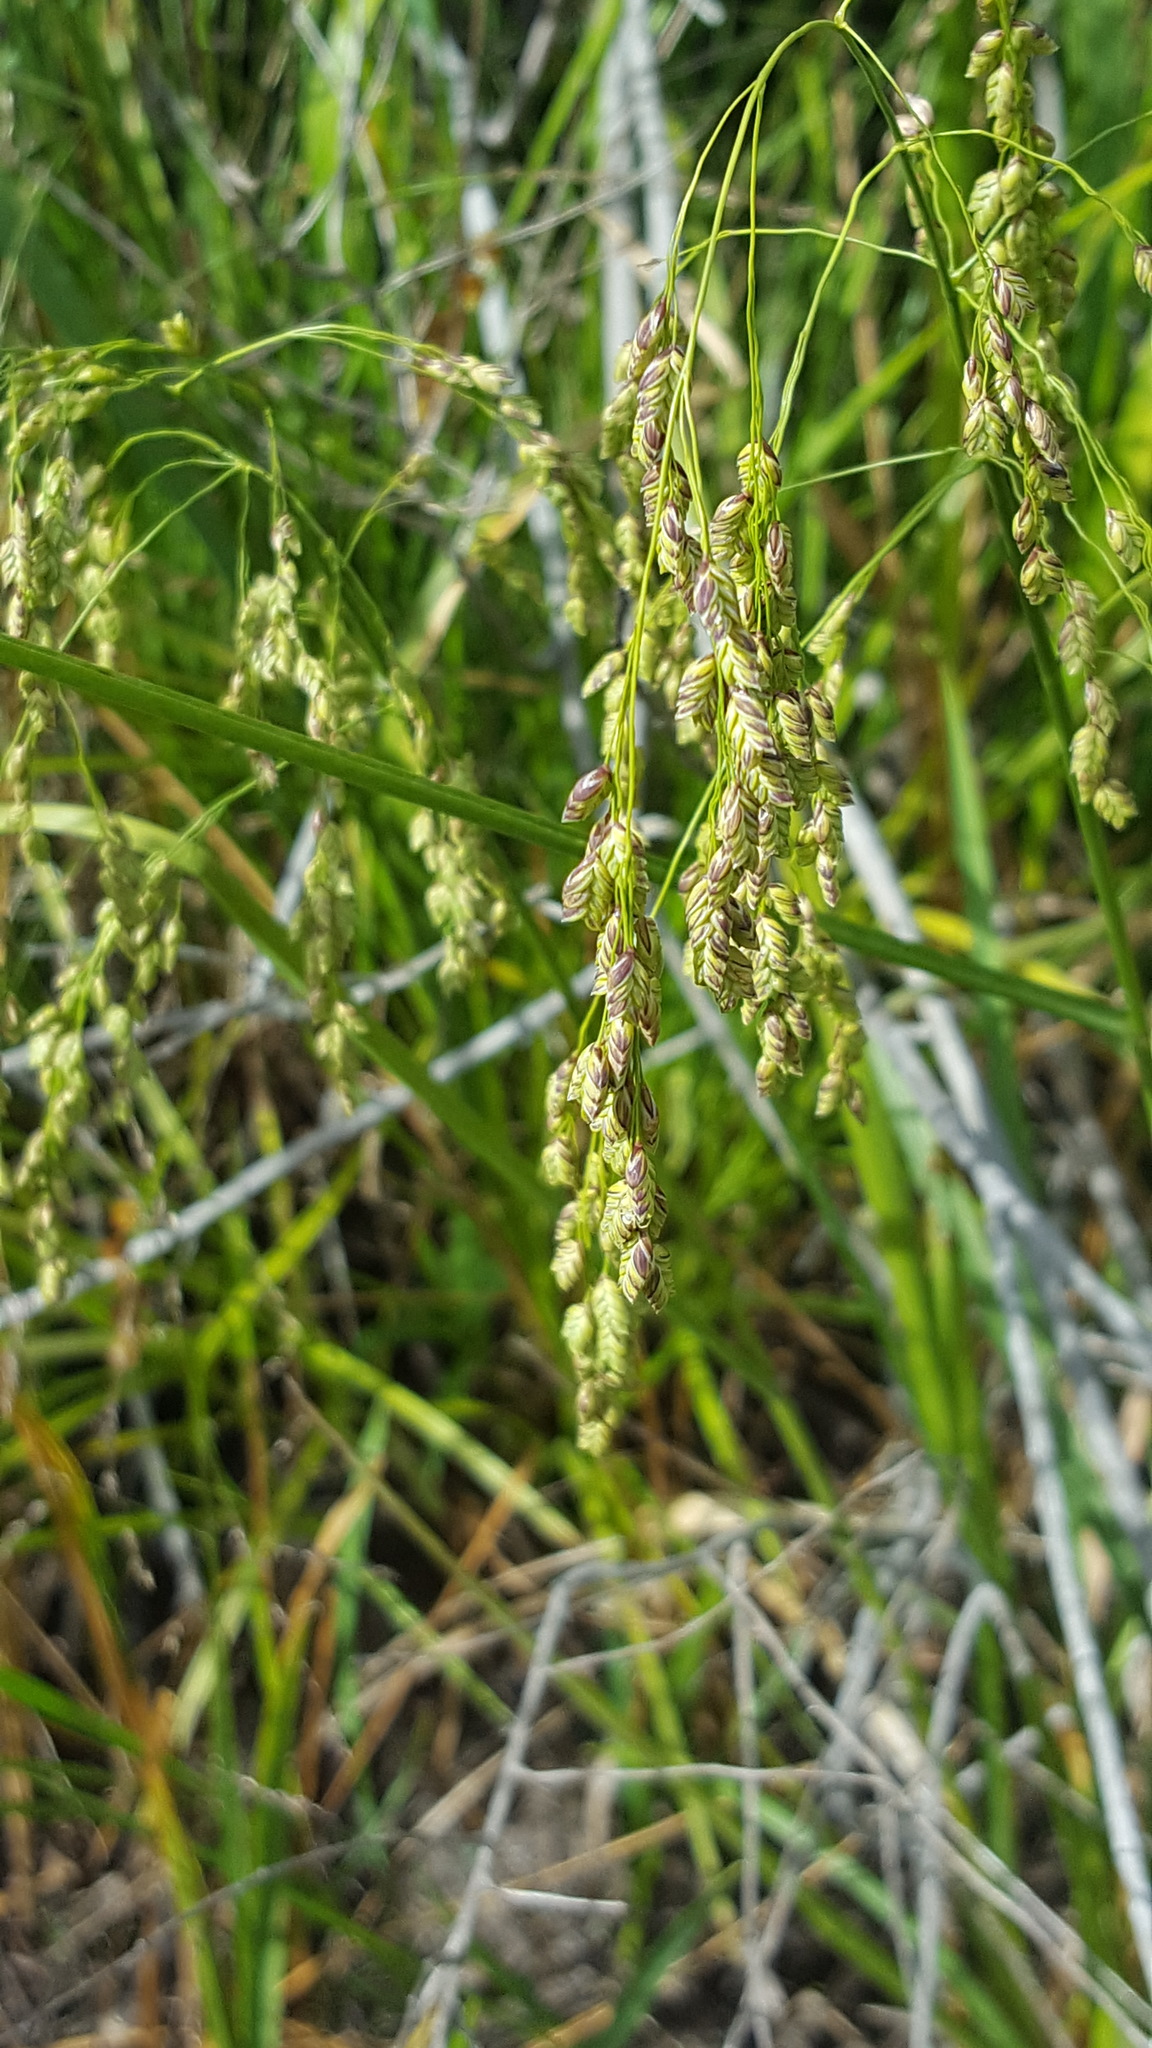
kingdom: Plantae
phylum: Tracheophyta
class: Liliopsida
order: Poales
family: Poaceae
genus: Glyceria
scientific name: Glyceria canadensis
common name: Canada mannagrass
